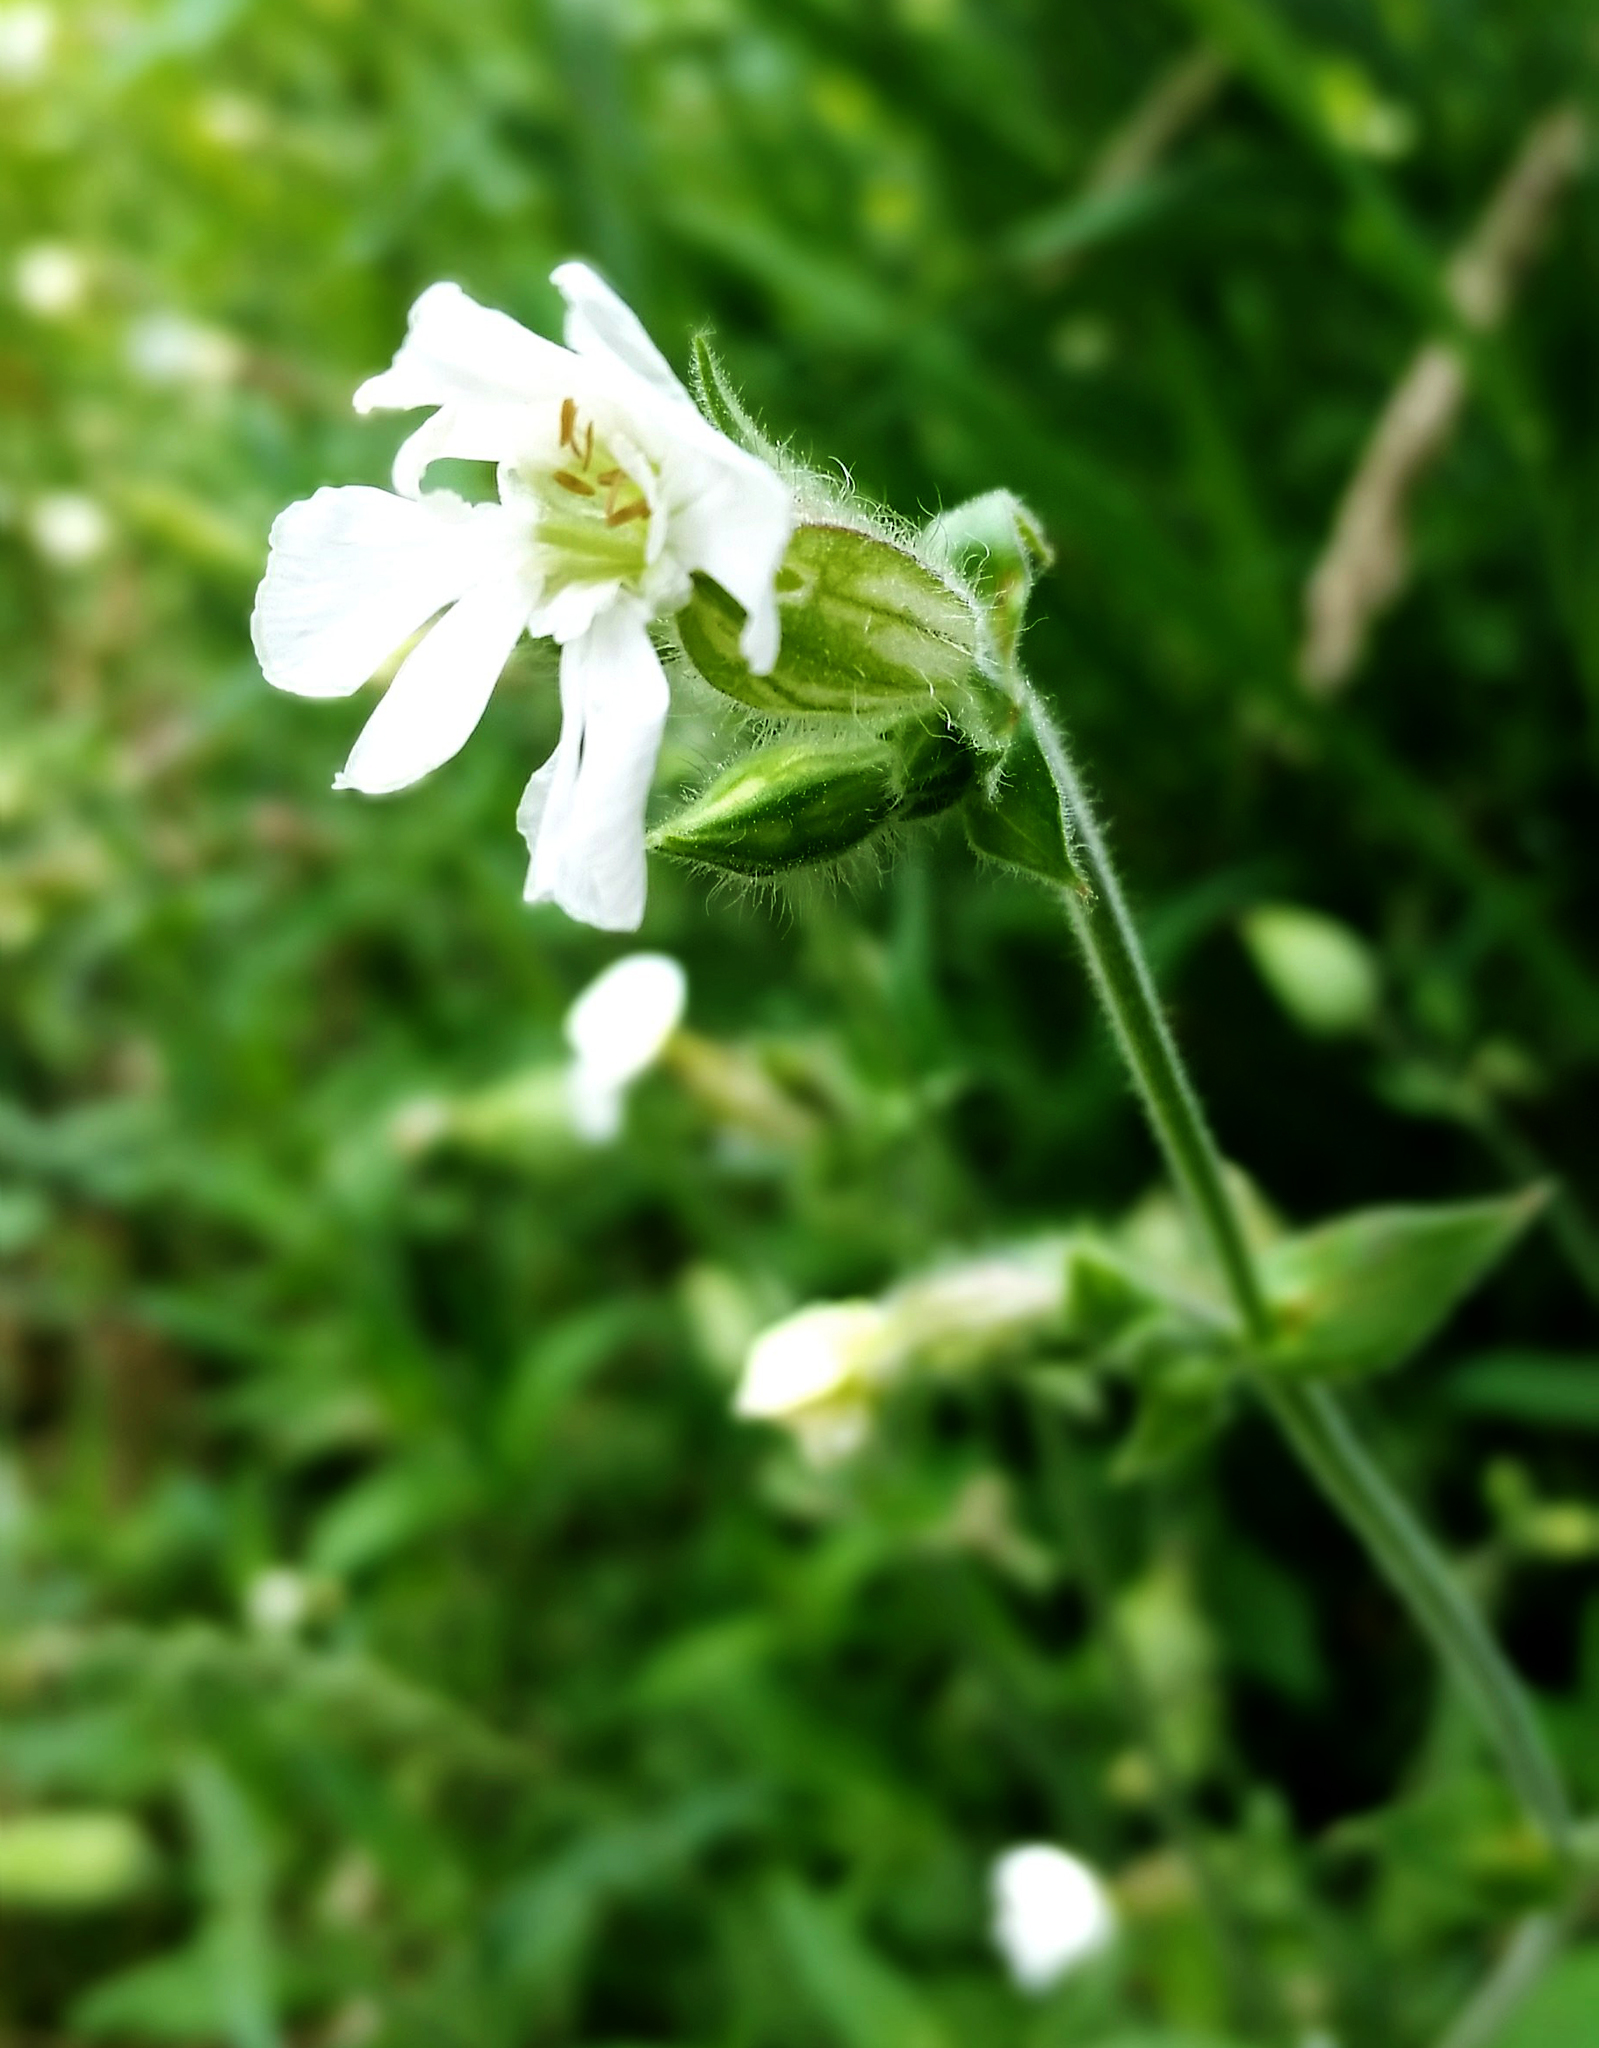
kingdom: Plantae
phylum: Tracheophyta
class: Magnoliopsida
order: Caryophyllales
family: Caryophyllaceae
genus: Silene
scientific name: Silene latifolia
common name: White campion
